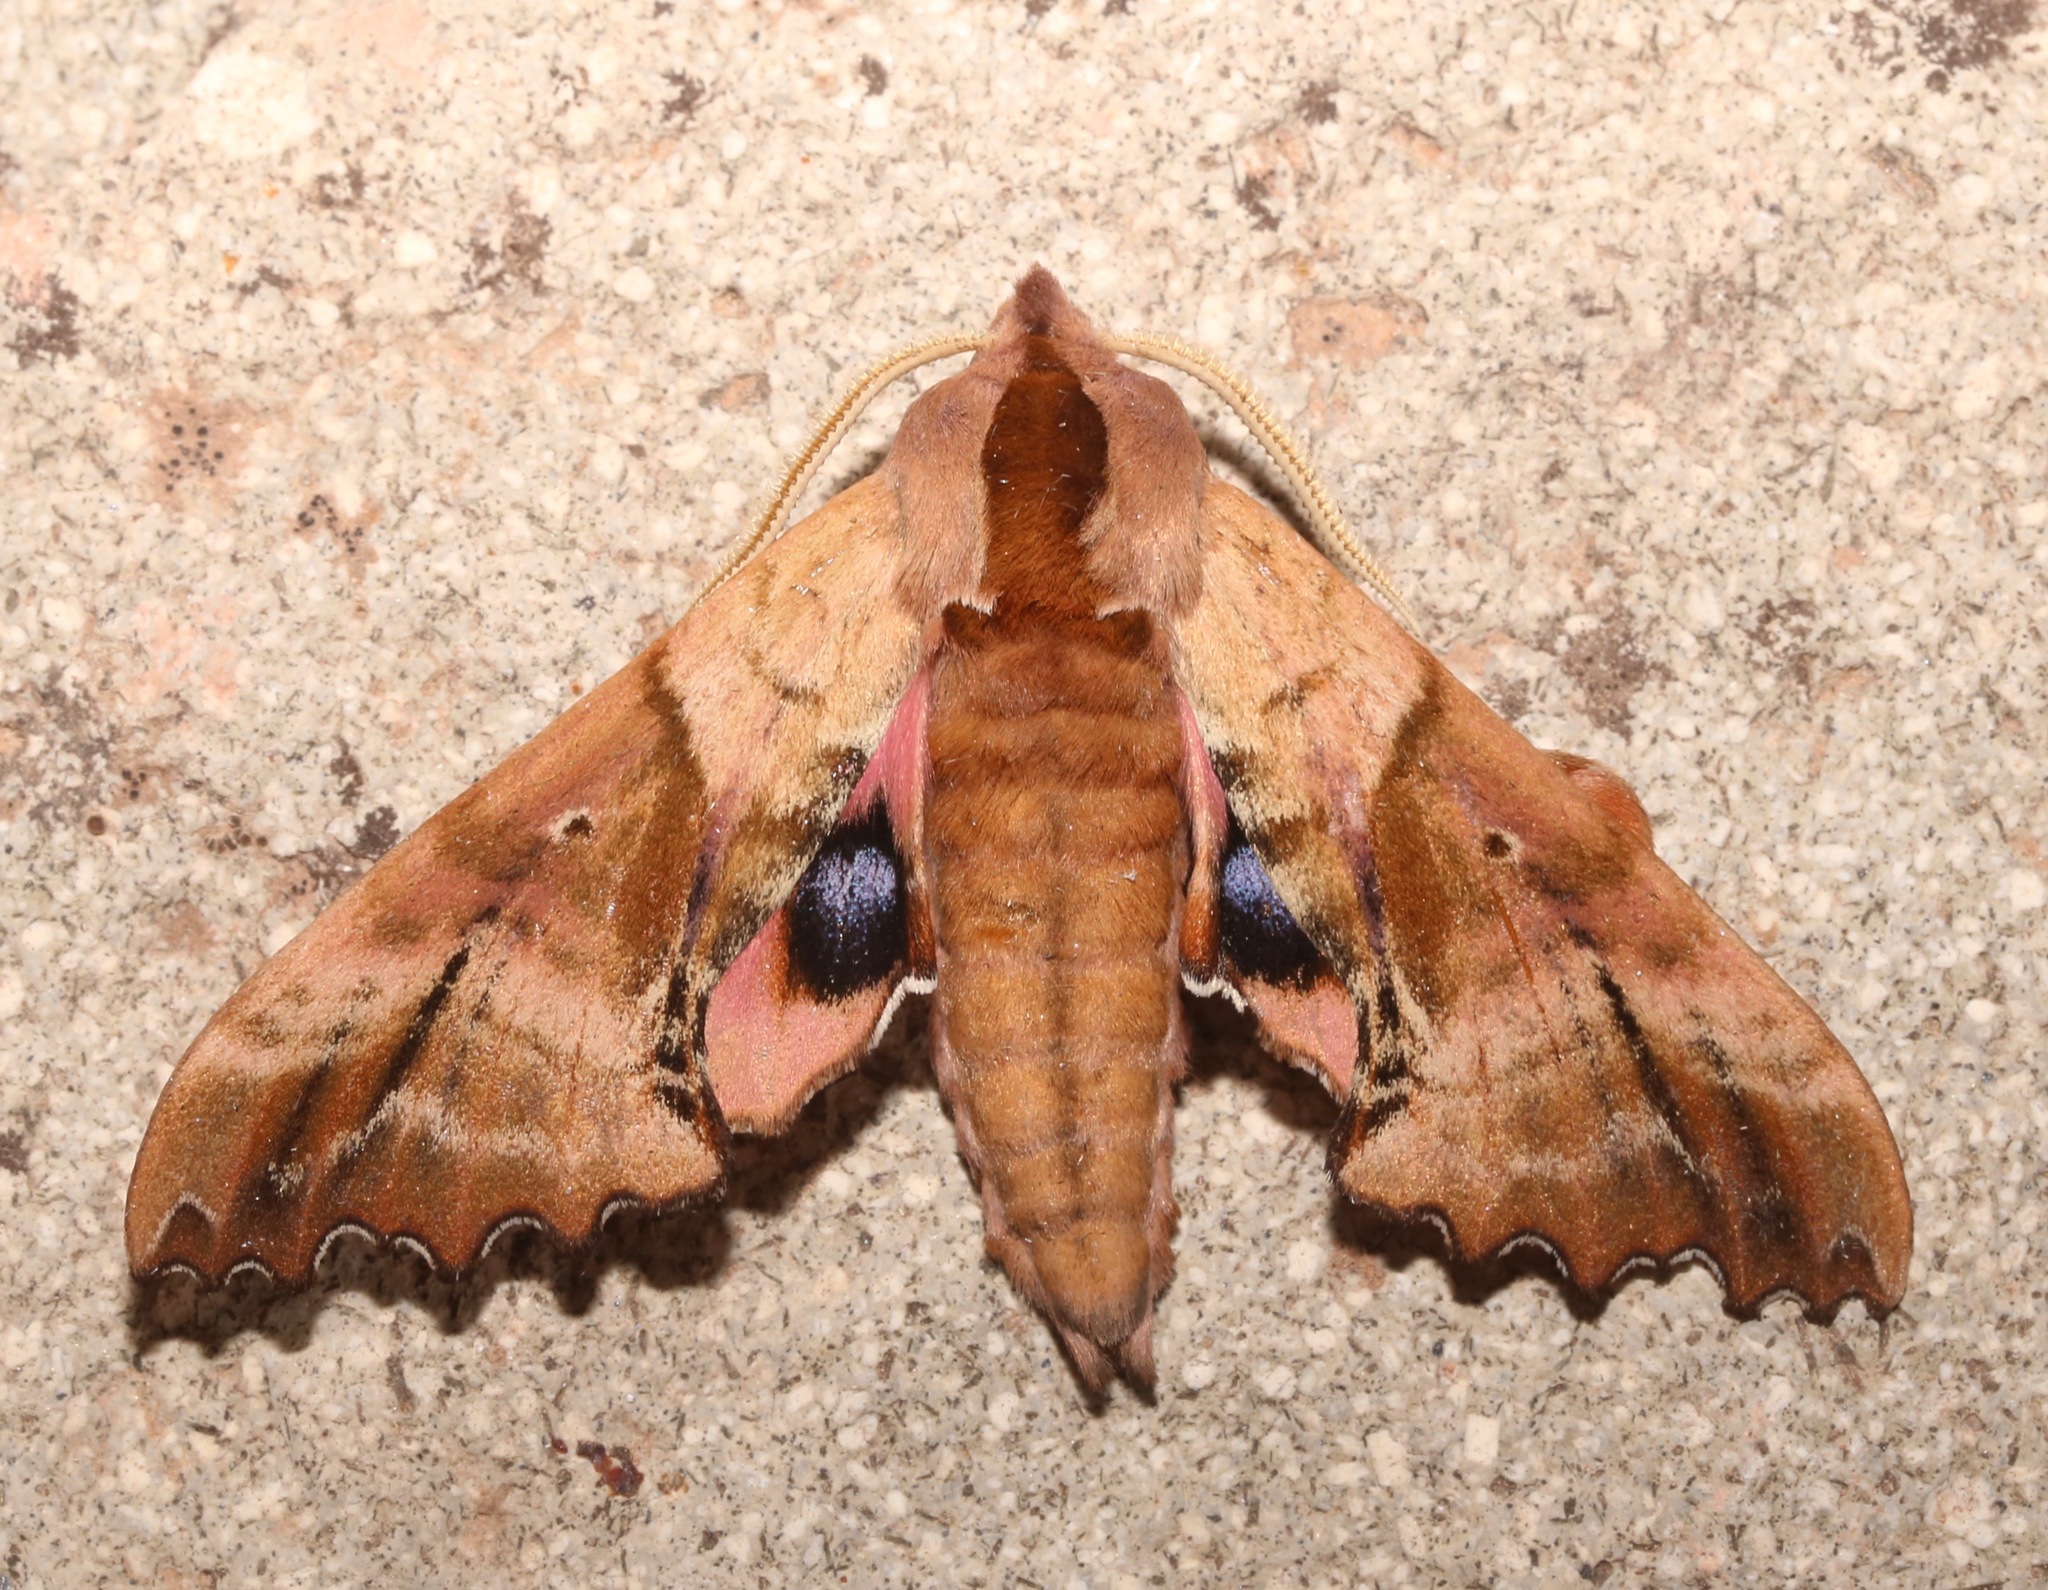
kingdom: Animalia
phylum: Arthropoda
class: Insecta
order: Lepidoptera
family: Sphingidae
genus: Paonias
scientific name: Paonias excaecata
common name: Blind-eyed sphinx
